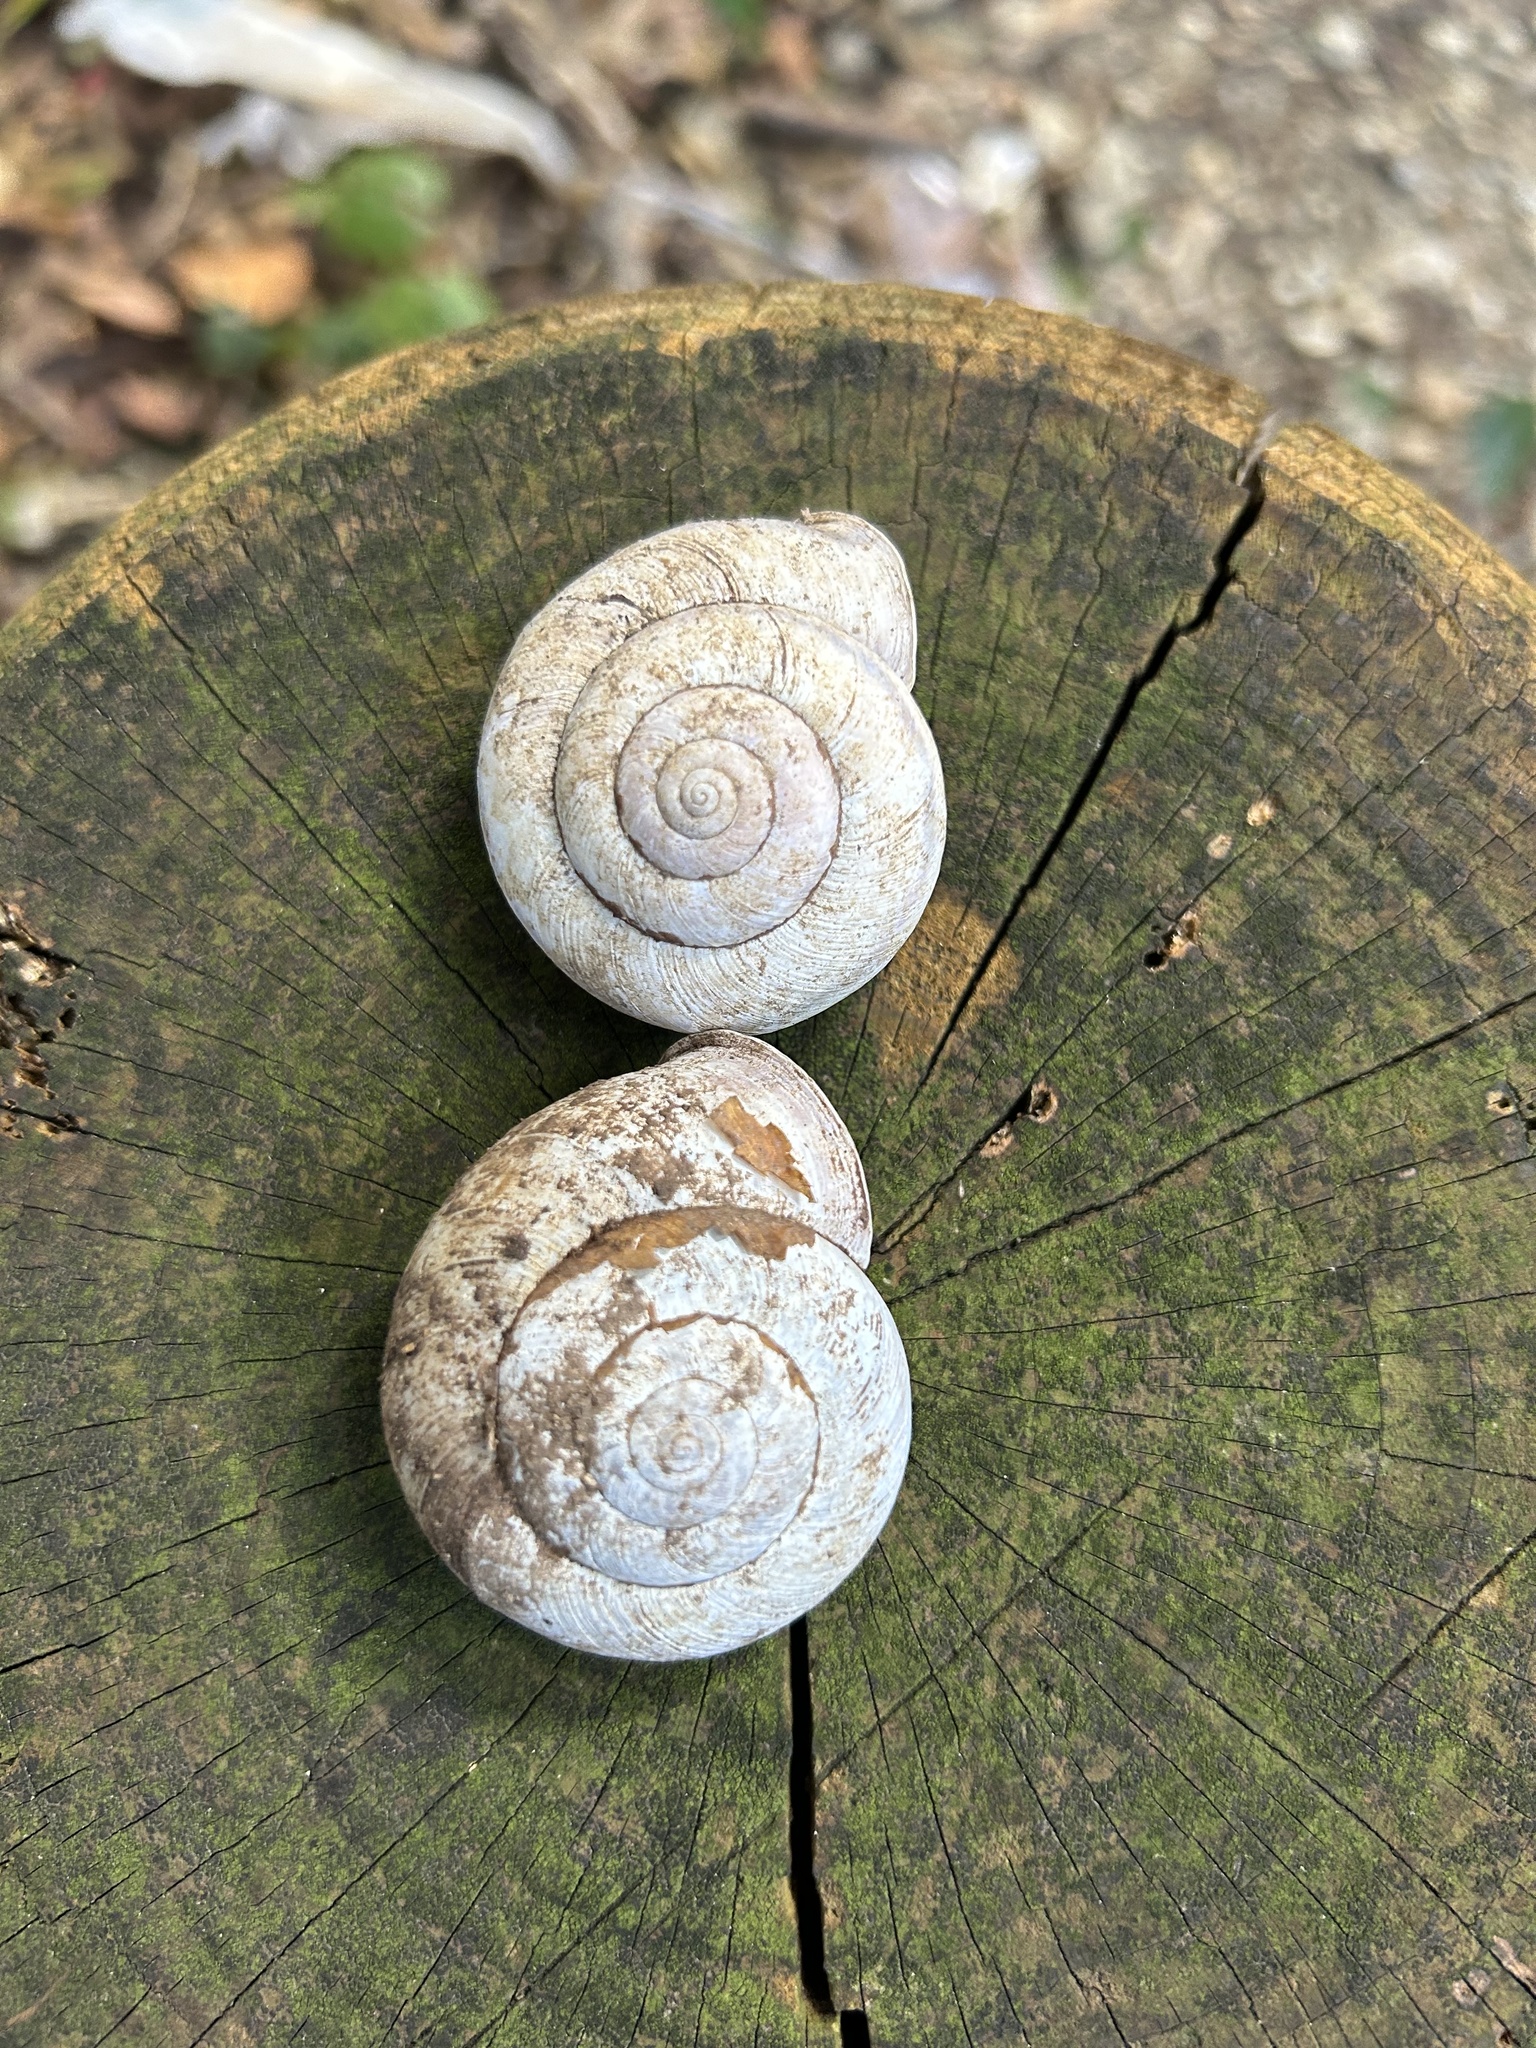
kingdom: Animalia
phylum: Mollusca
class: Gastropoda
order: Stylommatophora
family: Camaenidae
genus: Euhadra
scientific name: Euhadra eoa
